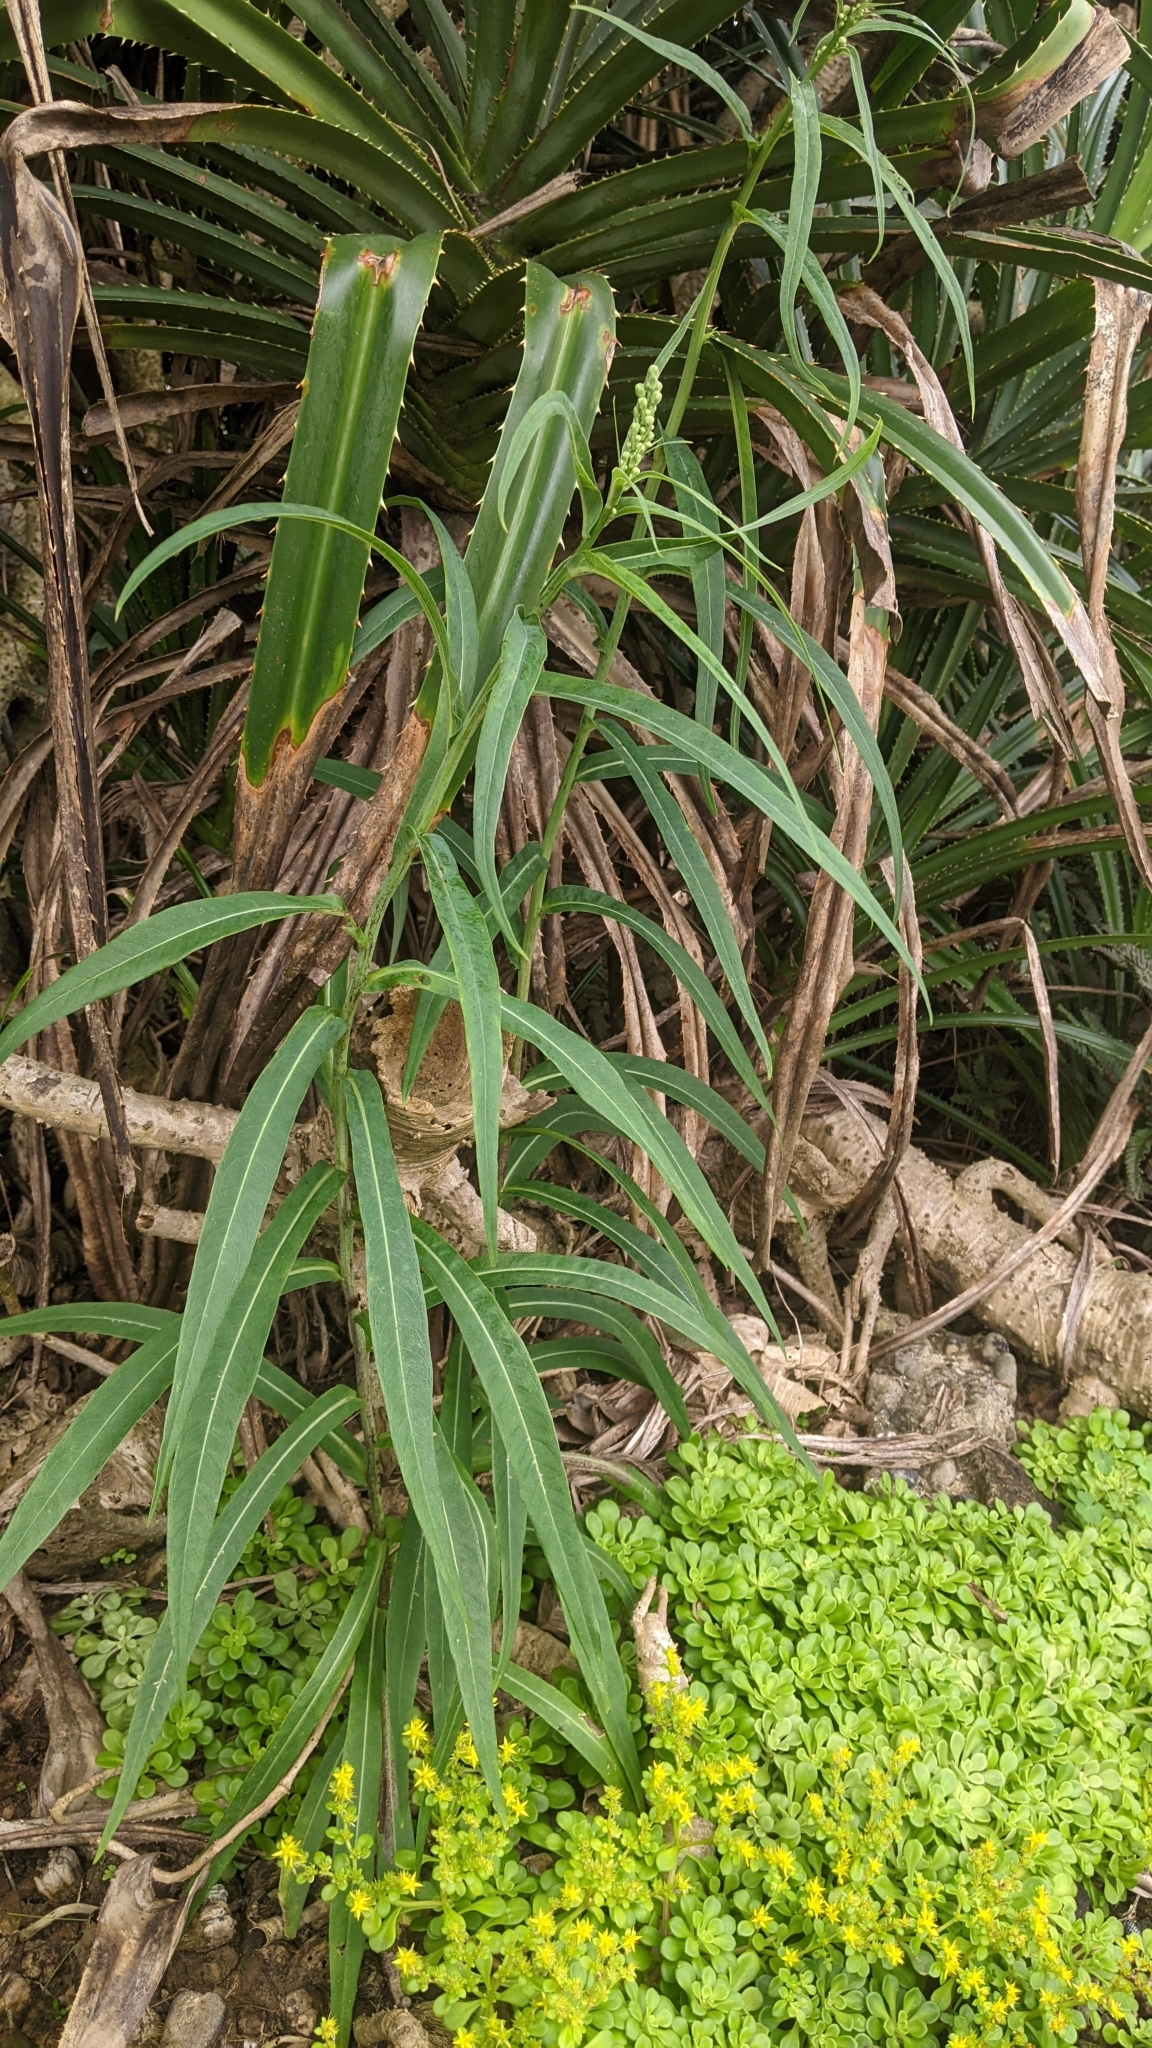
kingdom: Plantae
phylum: Tracheophyta
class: Magnoliopsida
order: Asterales
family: Asteraceae
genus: Lactuca
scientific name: Lactuca indica
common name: Wild lettuce
